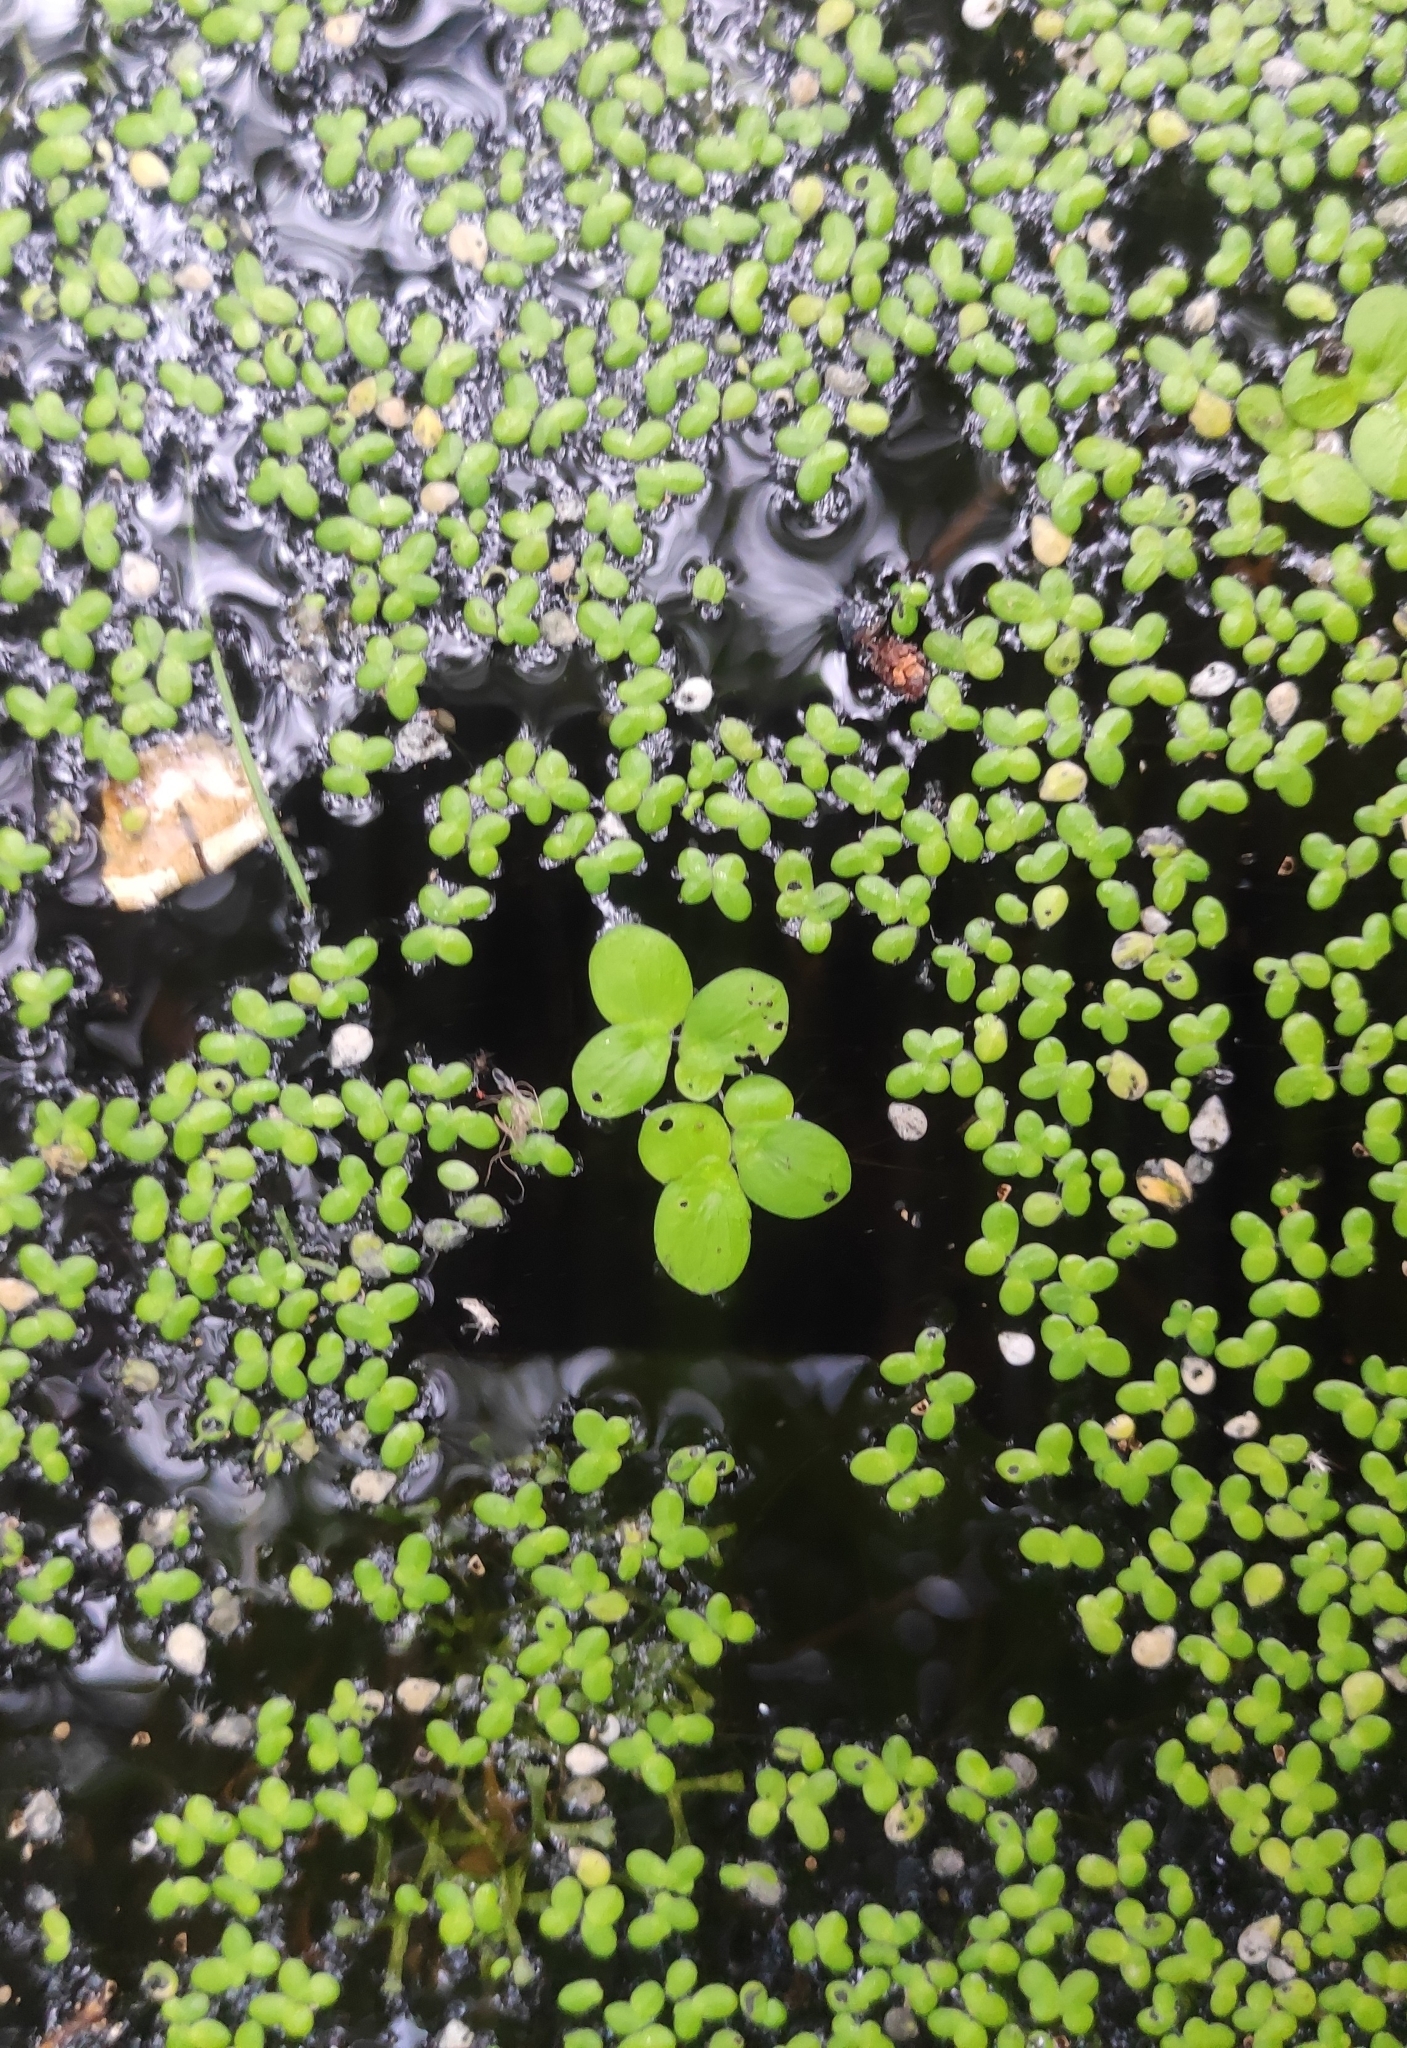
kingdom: Plantae
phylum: Tracheophyta
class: Liliopsida
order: Alismatales
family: Araceae
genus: Spirodela
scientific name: Spirodela polyrhiza
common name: Great duckweed
